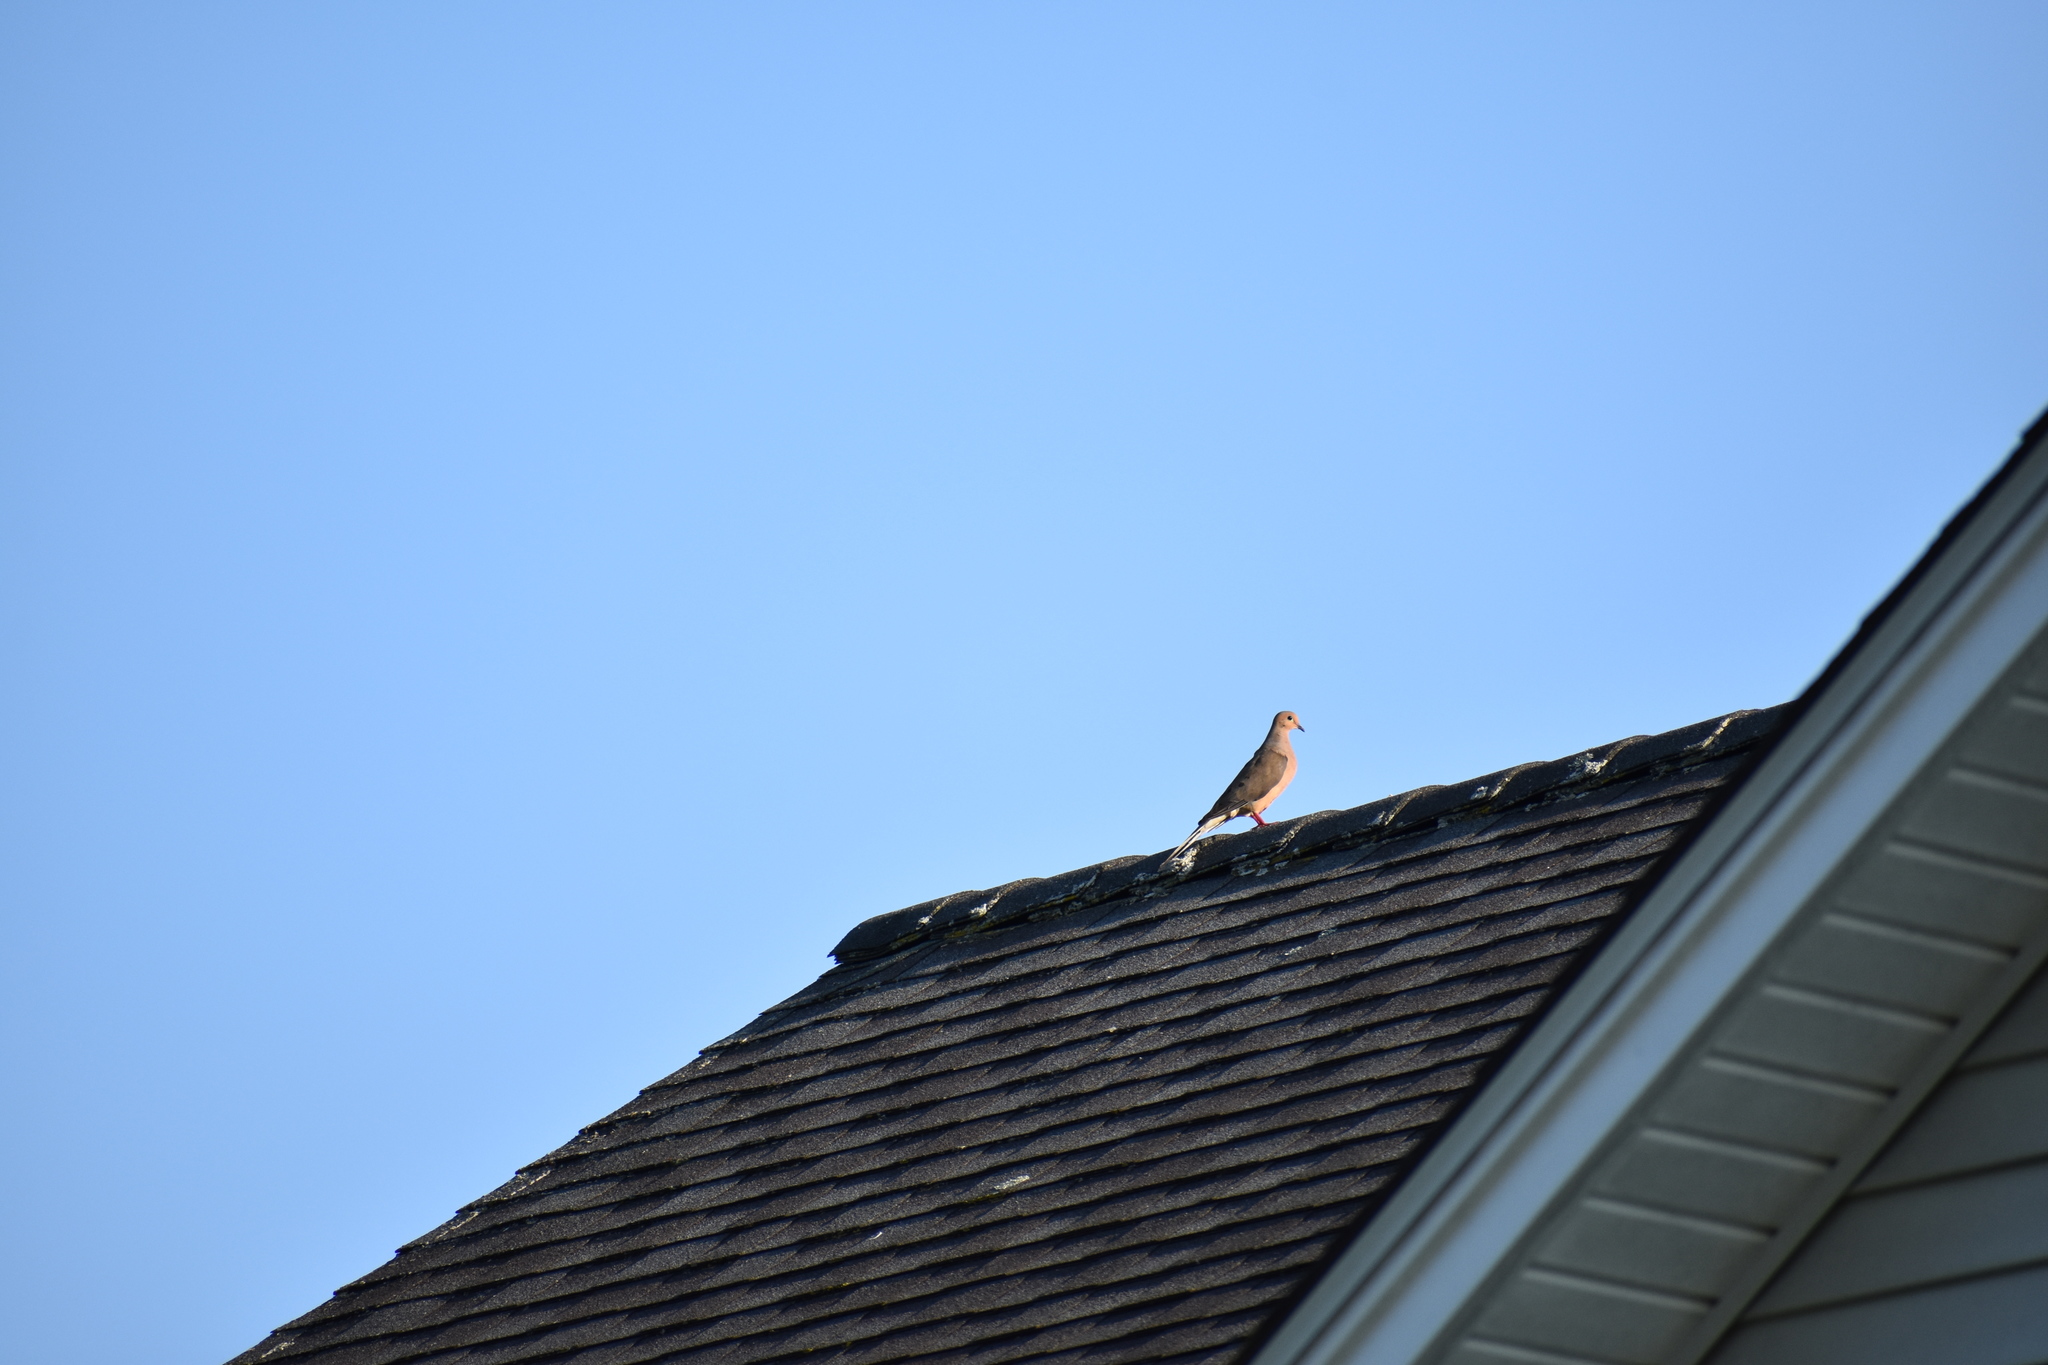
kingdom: Animalia
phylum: Chordata
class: Aves
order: Columbiformes
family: Columbidae
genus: Zenaida
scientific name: Zenaida macroura
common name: Mourning dove
